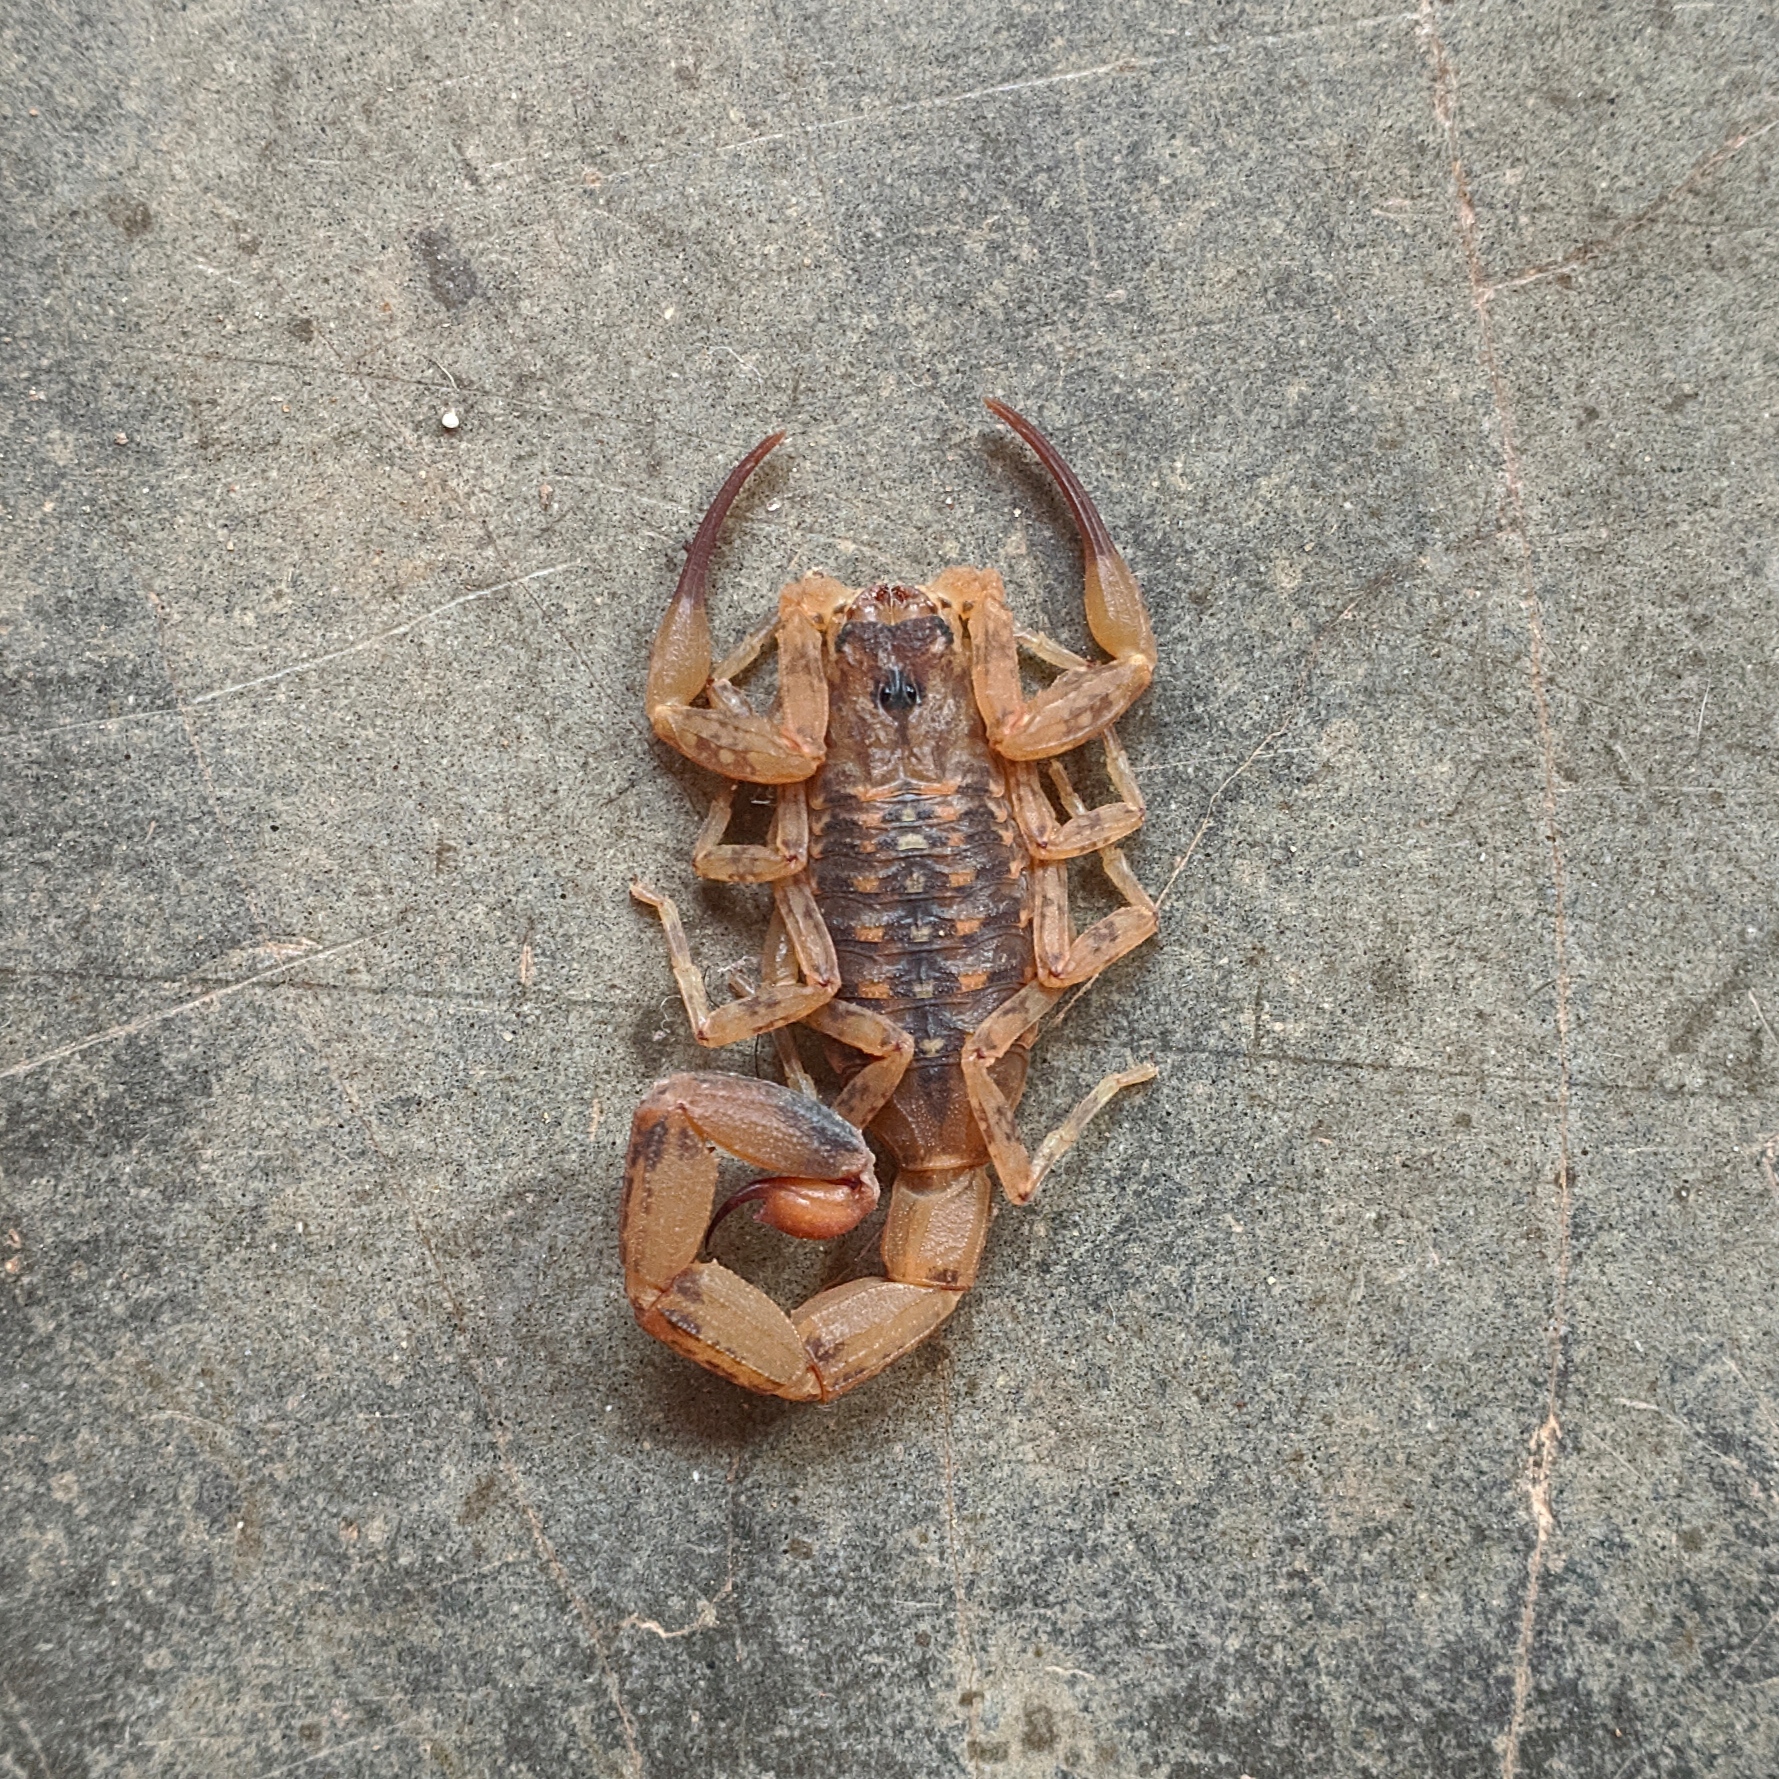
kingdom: Animalia
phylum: Arthropoda
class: Arachnida
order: Scorpiones
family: Buthidae
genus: Tityus
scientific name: Tityus martinpaechi
